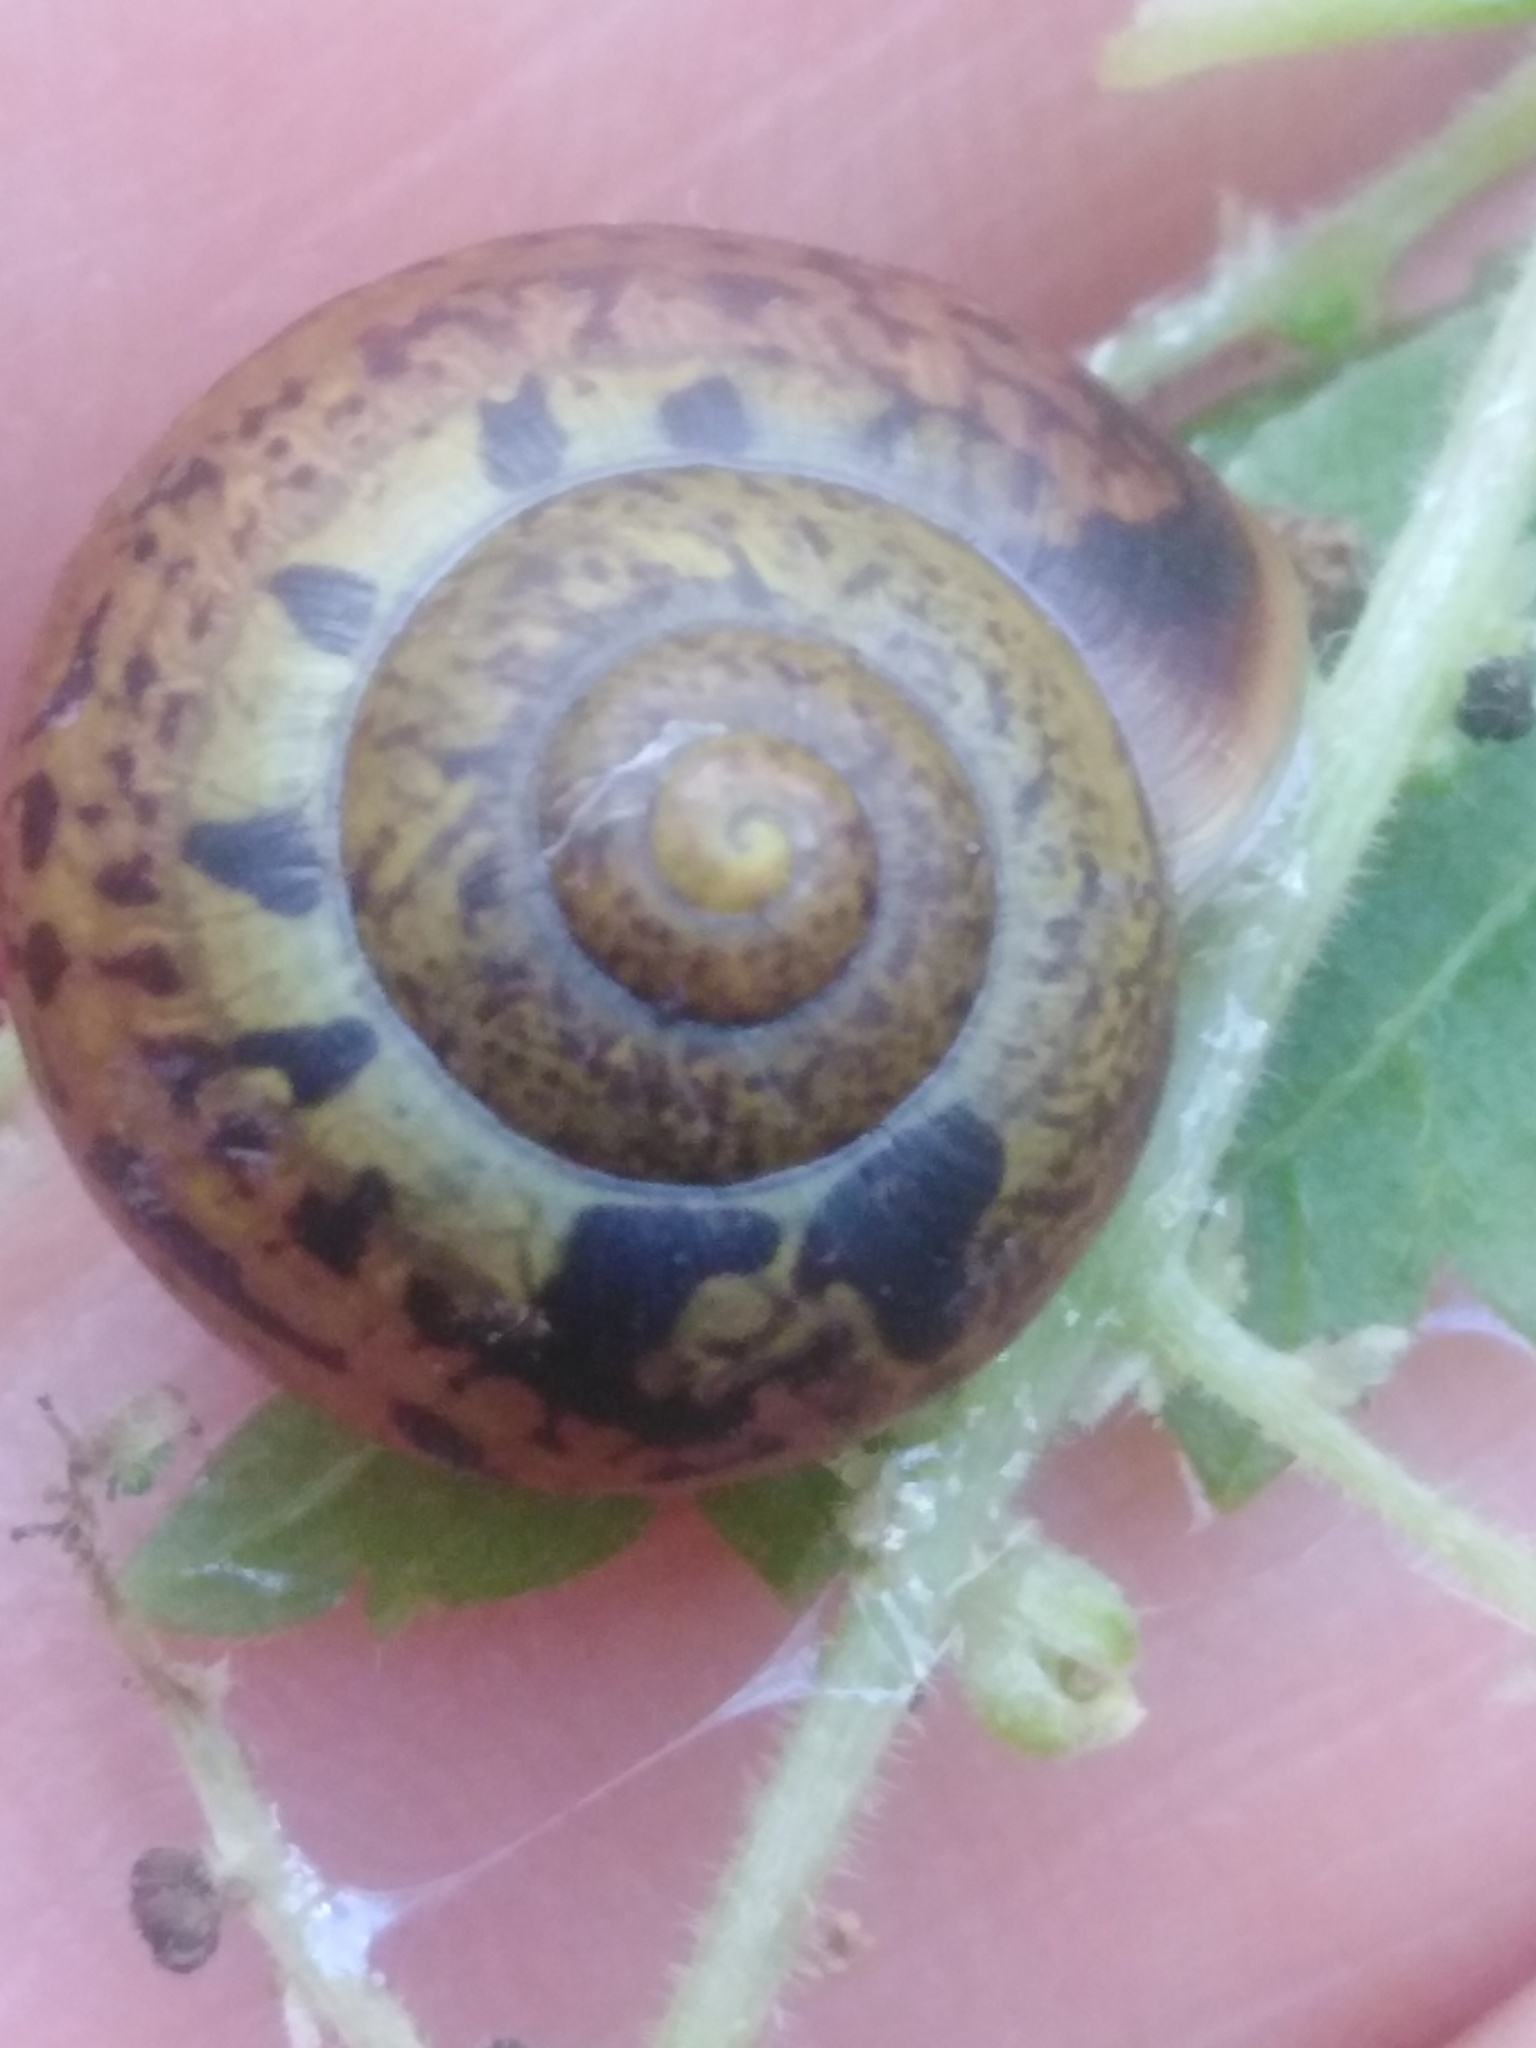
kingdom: Animalia
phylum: Mollusca
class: Gastropoda
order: Stylommatophora
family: Camaenidae
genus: Fruticicola
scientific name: Fruticicola fruticum
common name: Bush snail
